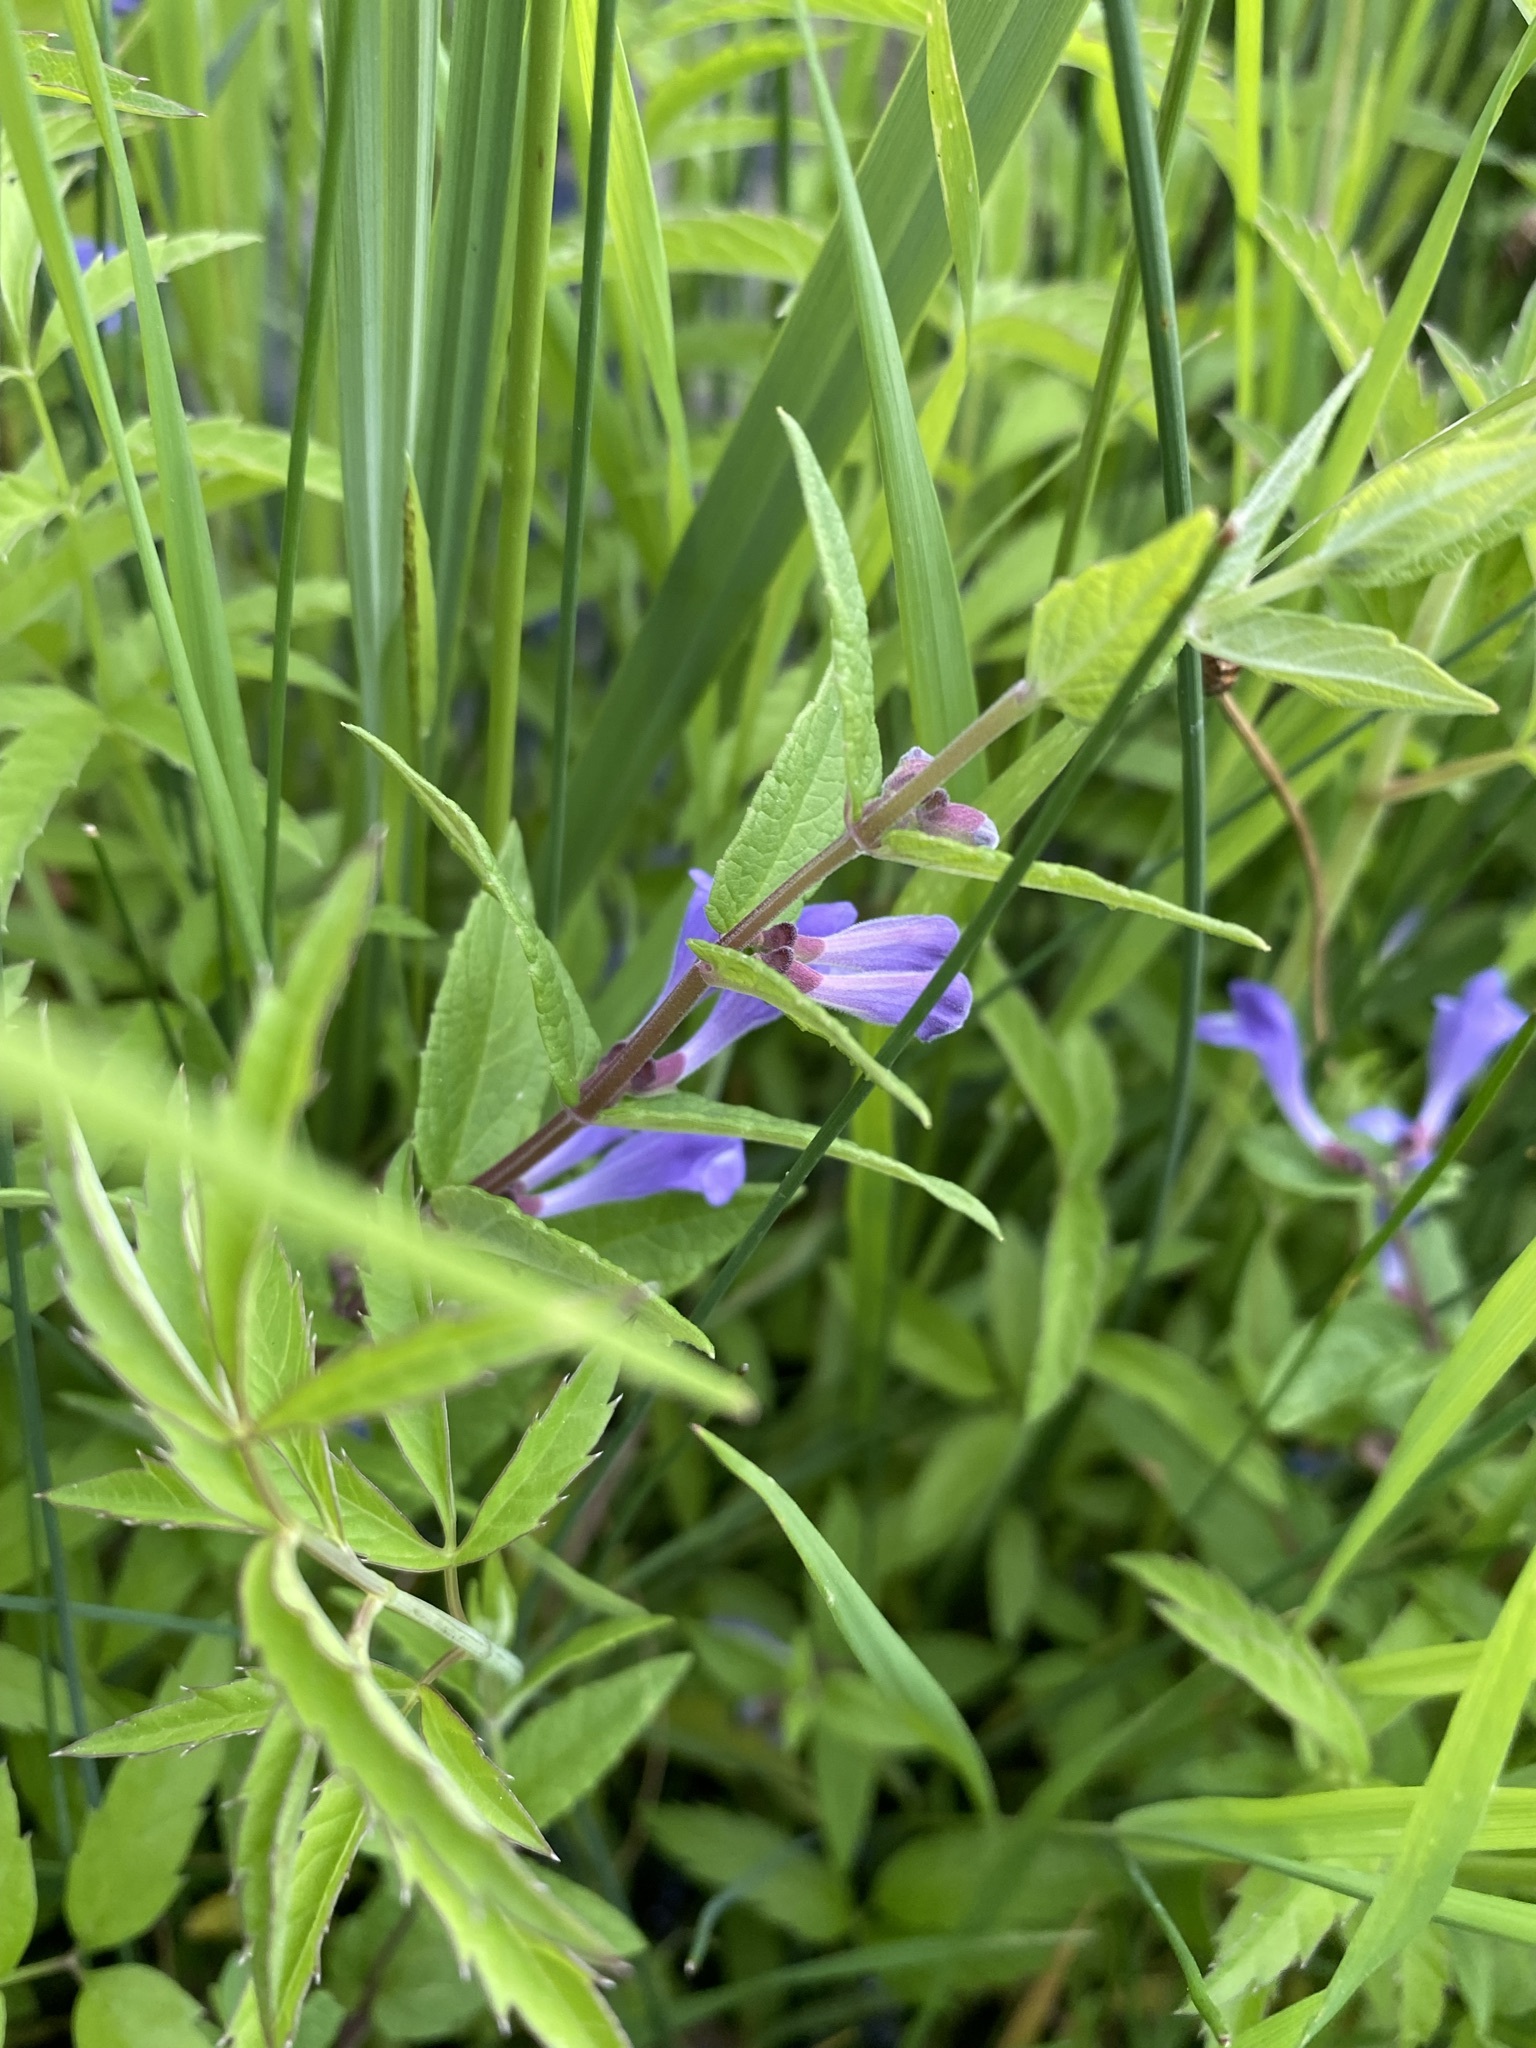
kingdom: Plantae
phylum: Tracheophyta
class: Magnoliopsida
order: Lamiales
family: Lamiaceae
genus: Scutellaria
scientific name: Scutellaria galericulata
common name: Skullcap
